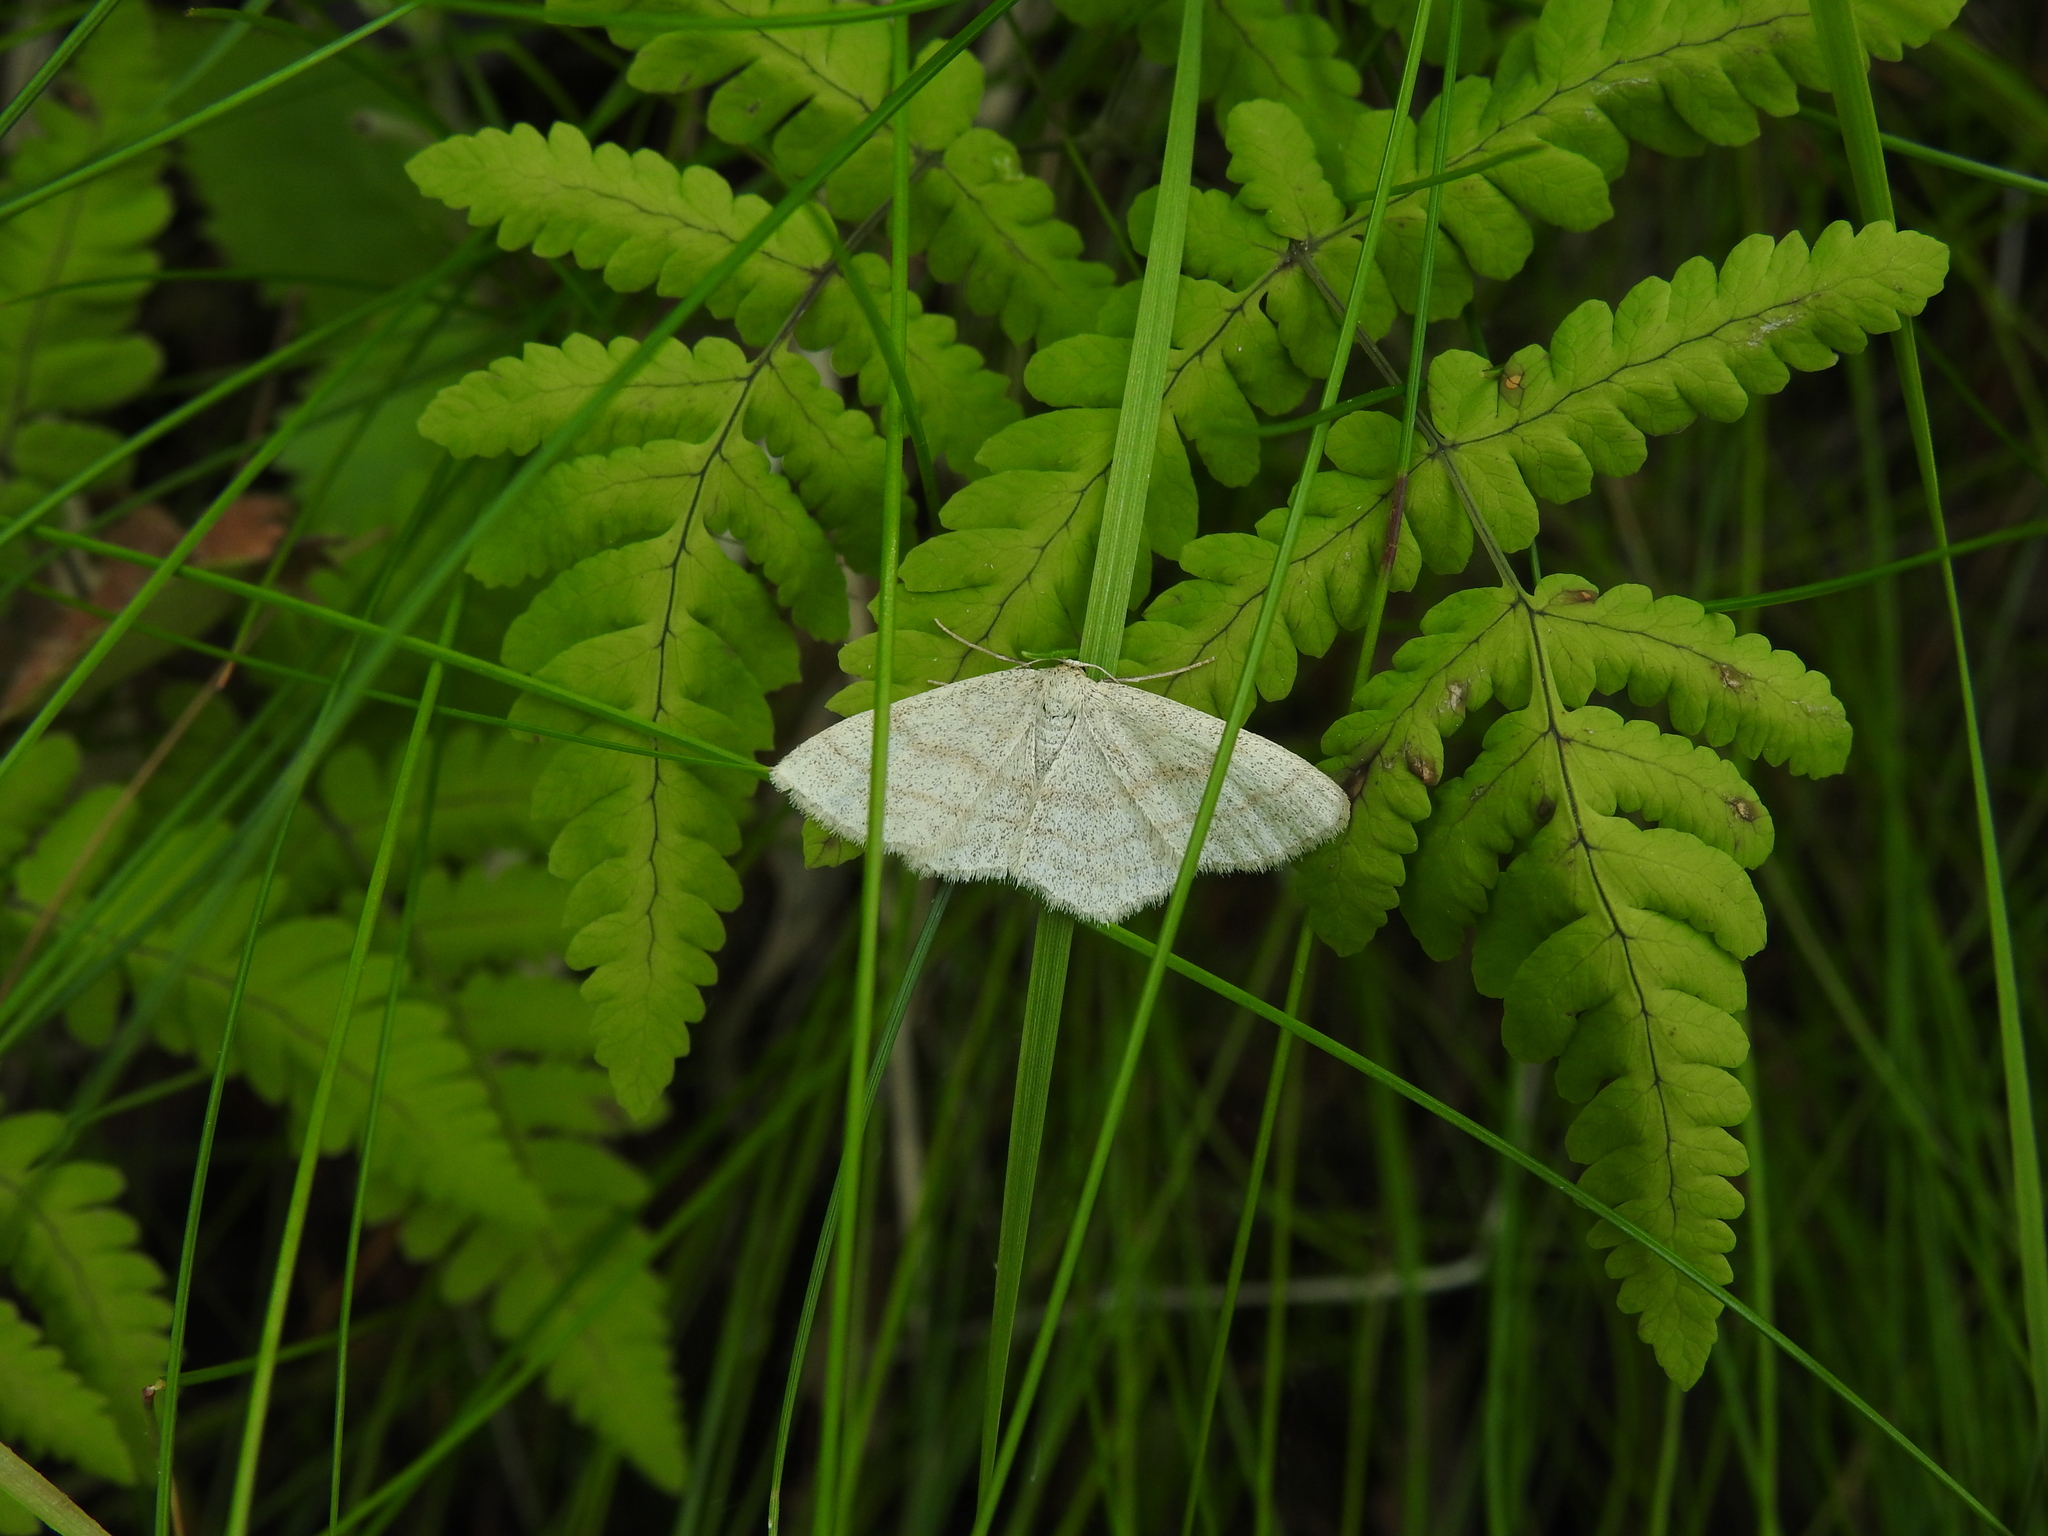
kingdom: Animalia
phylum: Arthropoda
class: Insecta
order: Lepidoptera
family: Geometridae
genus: Scopula
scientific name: Scopula ternata
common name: Smoky wave
